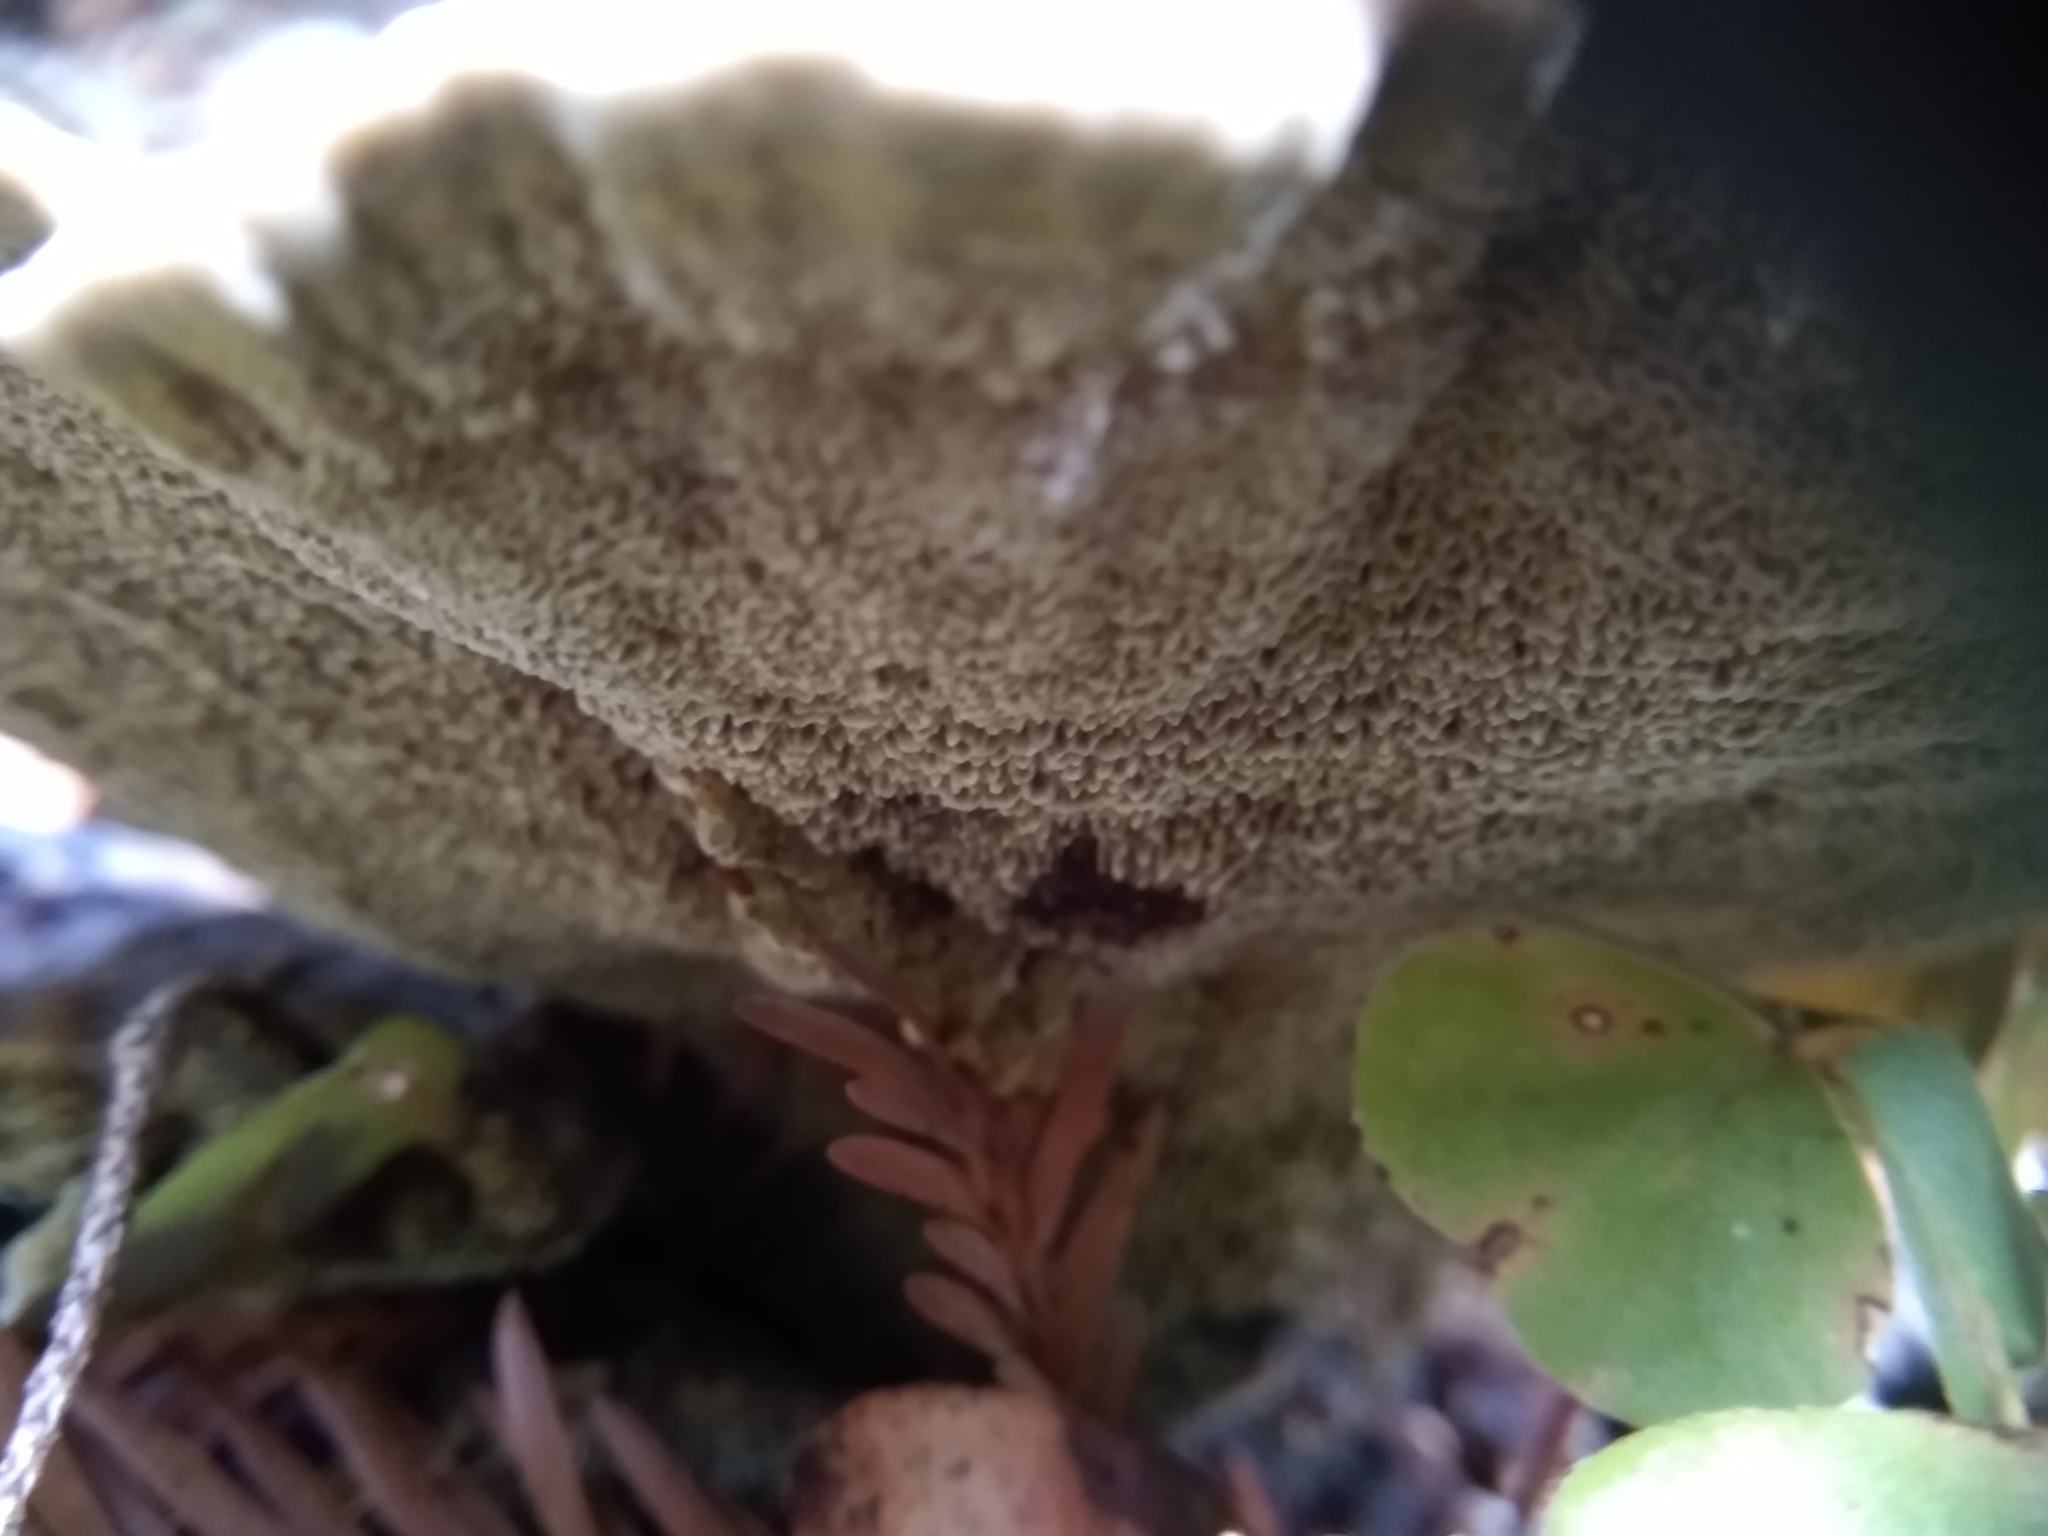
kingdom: Fungi
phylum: Basidiomycota
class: Agaricomycetes
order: Polyporales
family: Laetiporaceae
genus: Phaeolus
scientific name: Phaeolus schweinitzii
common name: Dyer's mazegill
